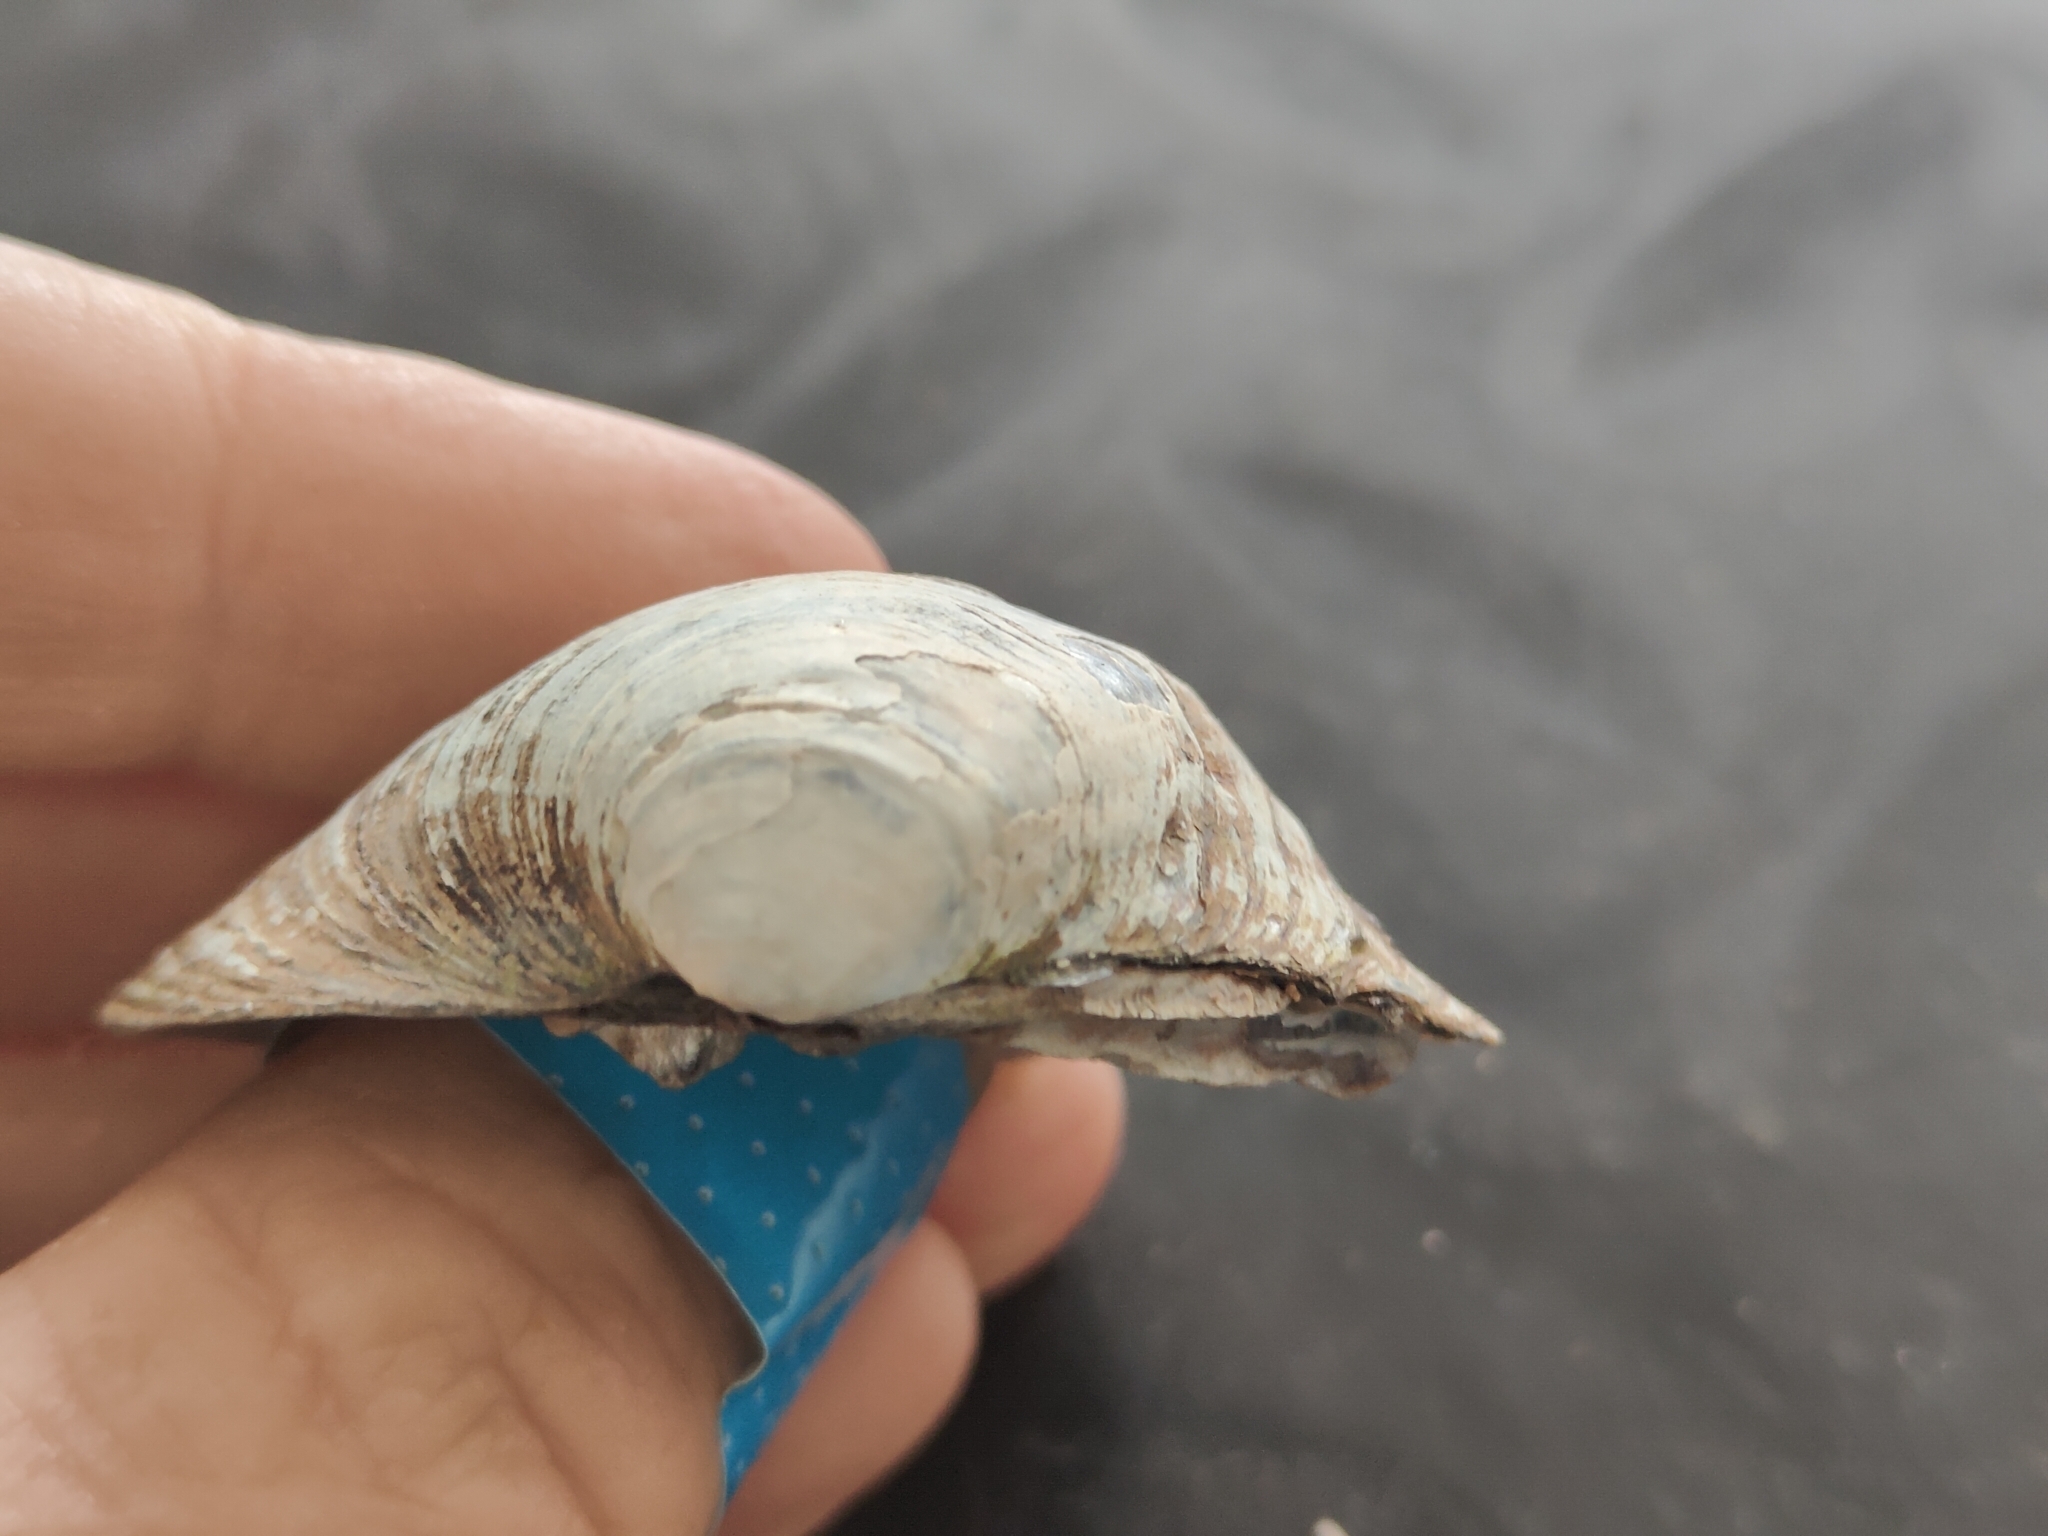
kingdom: Animalia
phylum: Mollusca
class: Bivalvia
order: Unionida
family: Unionidae
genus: Cyclonaias
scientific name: Cyclonaias pustulosa
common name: Pimpleback
